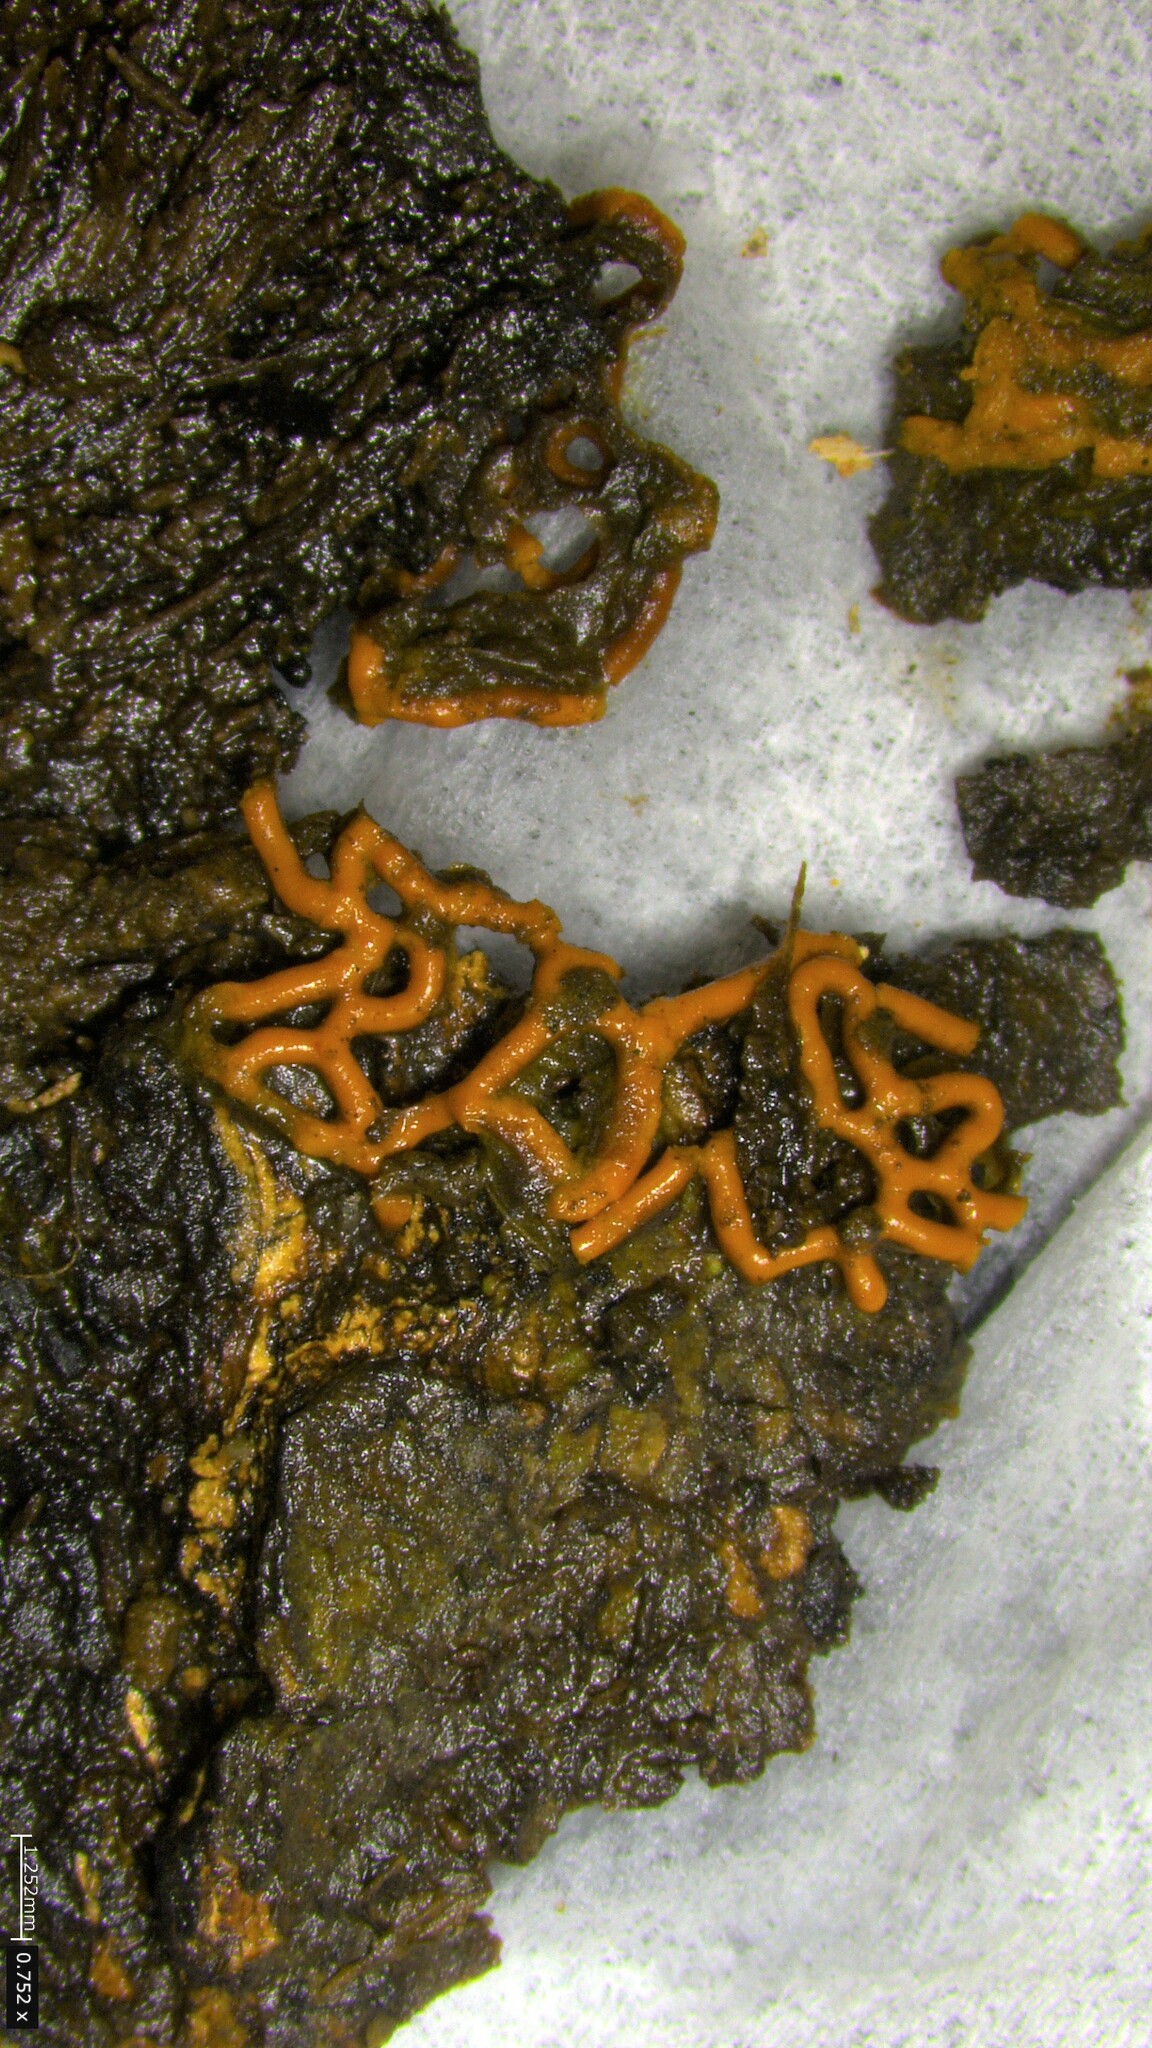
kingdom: Protozoa
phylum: Mycetozoa
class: Myxomycetes
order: Trichiales
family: Arcyriaceae
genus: Hemitrichia
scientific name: Hemitrichia serpula
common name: Pretzel slime mold
